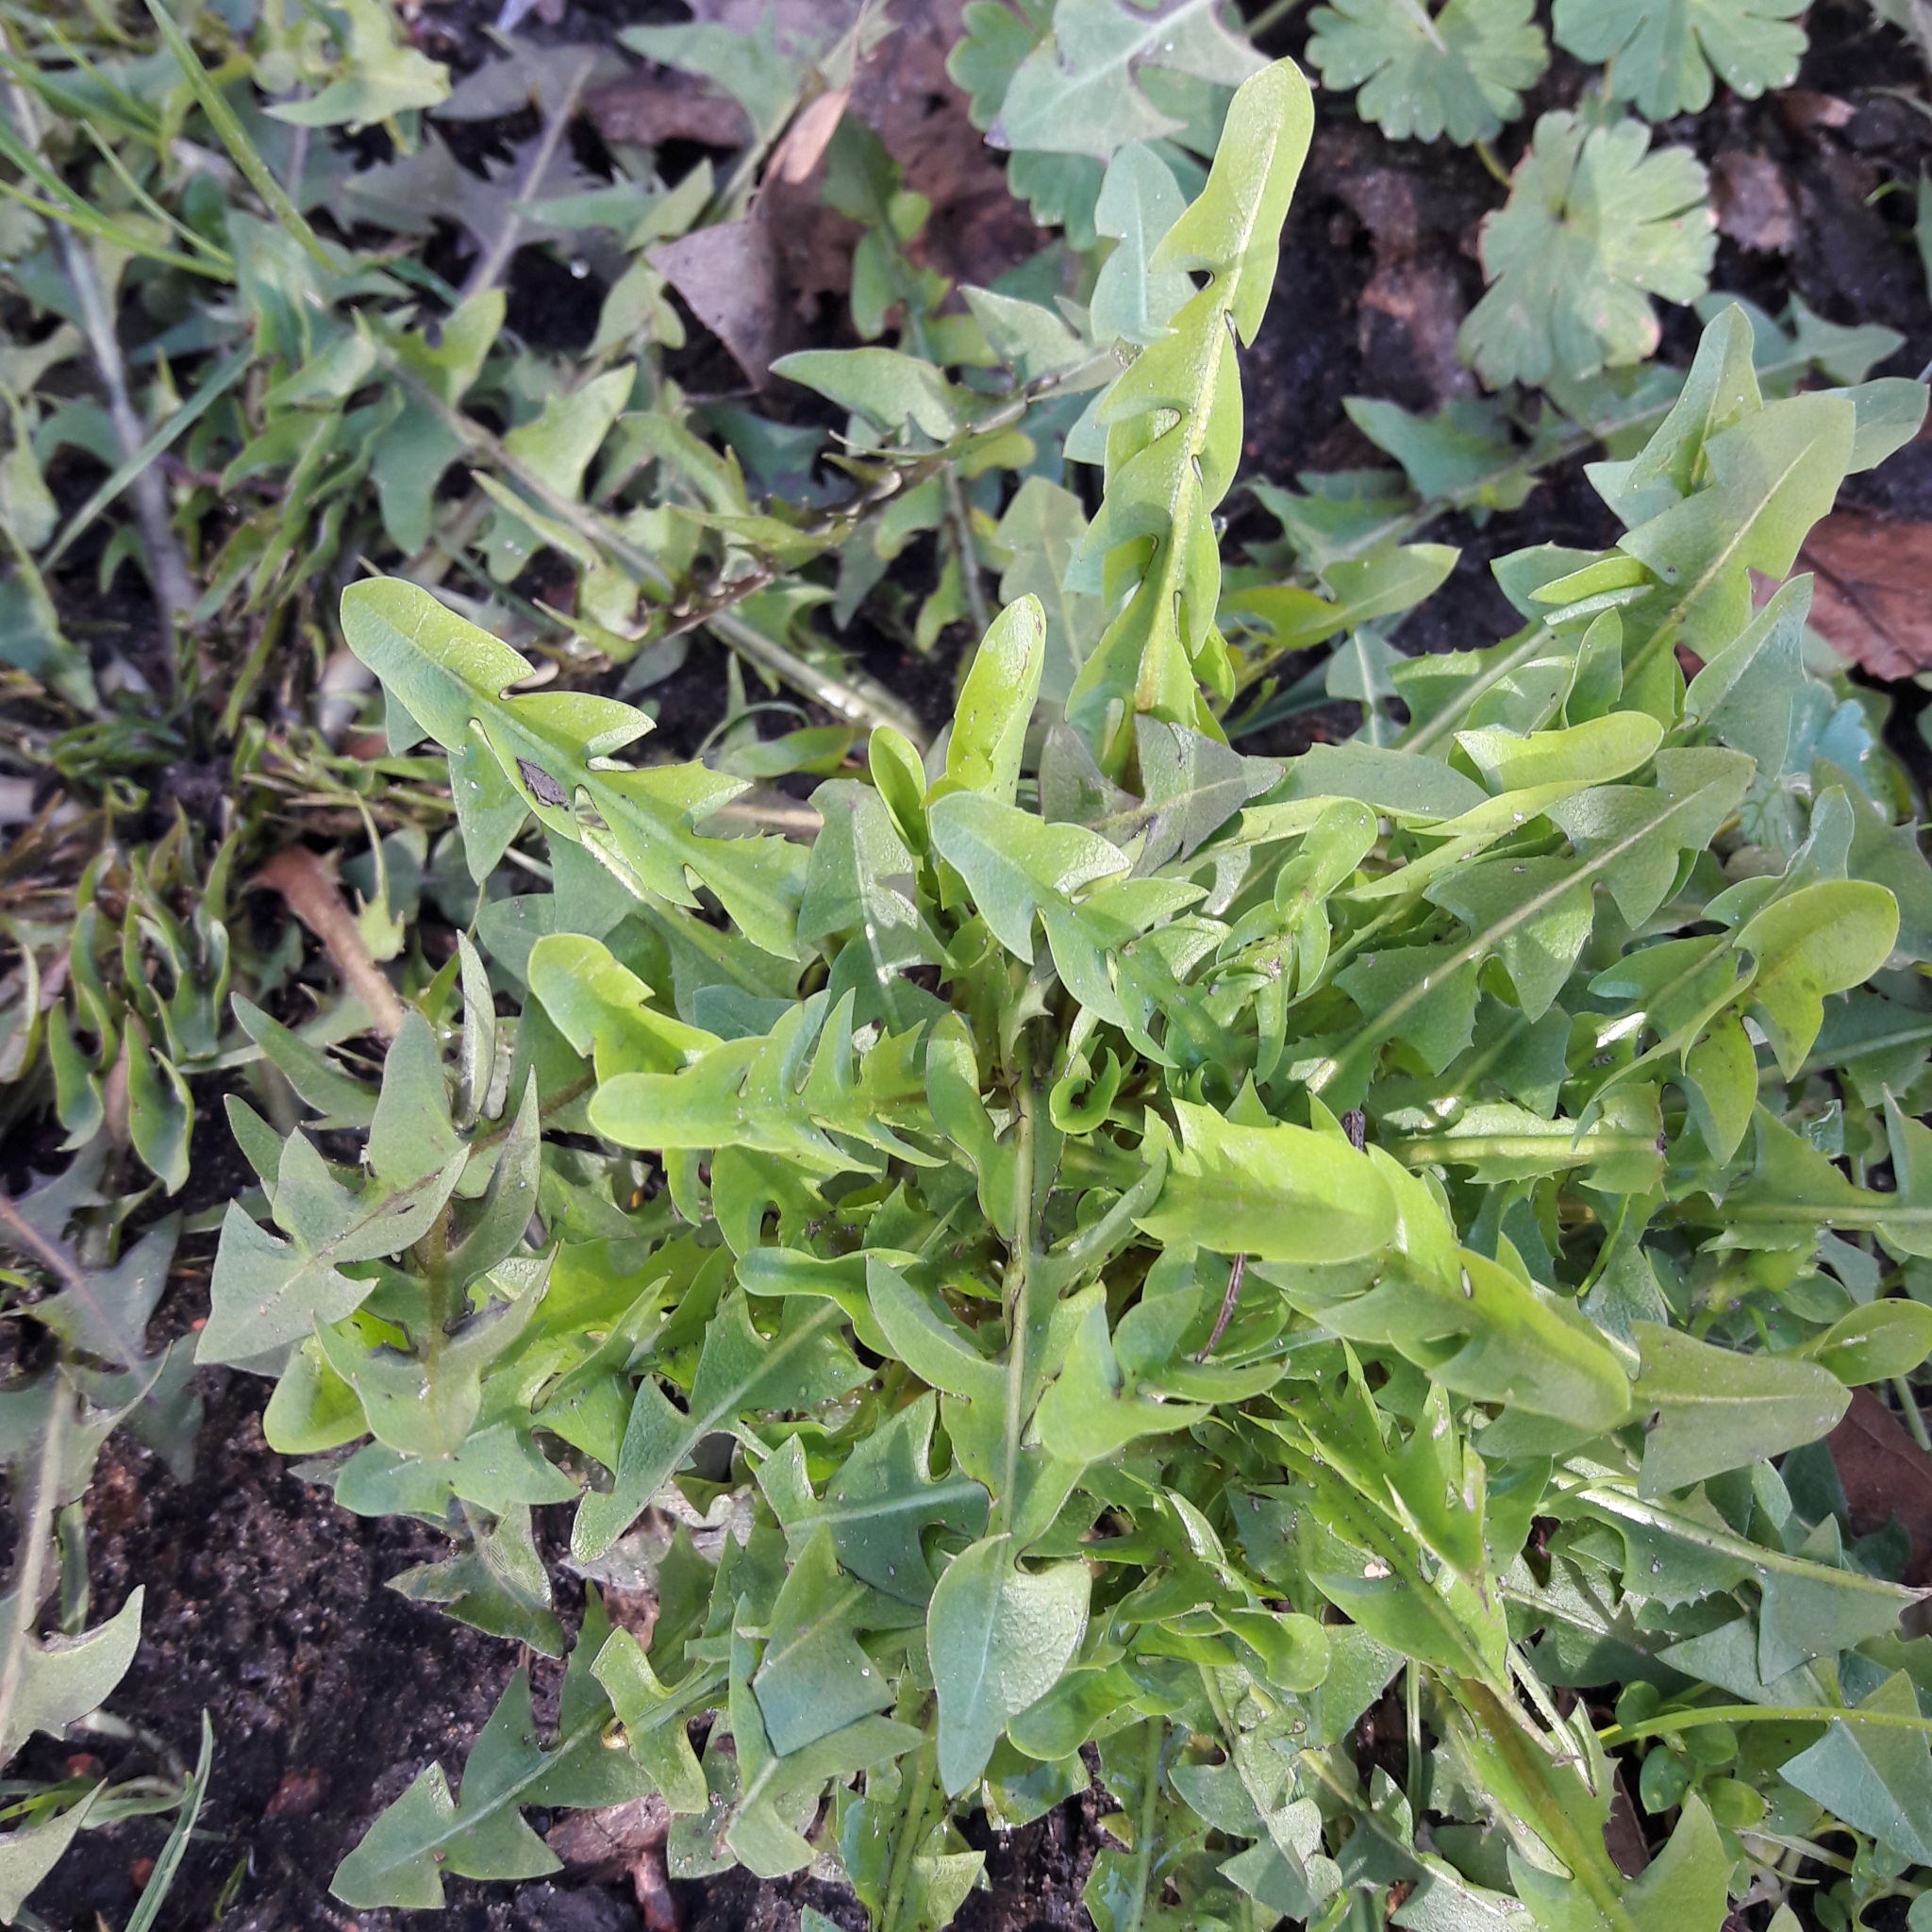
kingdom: Plantae
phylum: Tracheophyta
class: Magnoliopsida
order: Asterales
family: Asteraceae
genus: Taraxacum
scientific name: Taraxacum officinale
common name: Common dandelion
